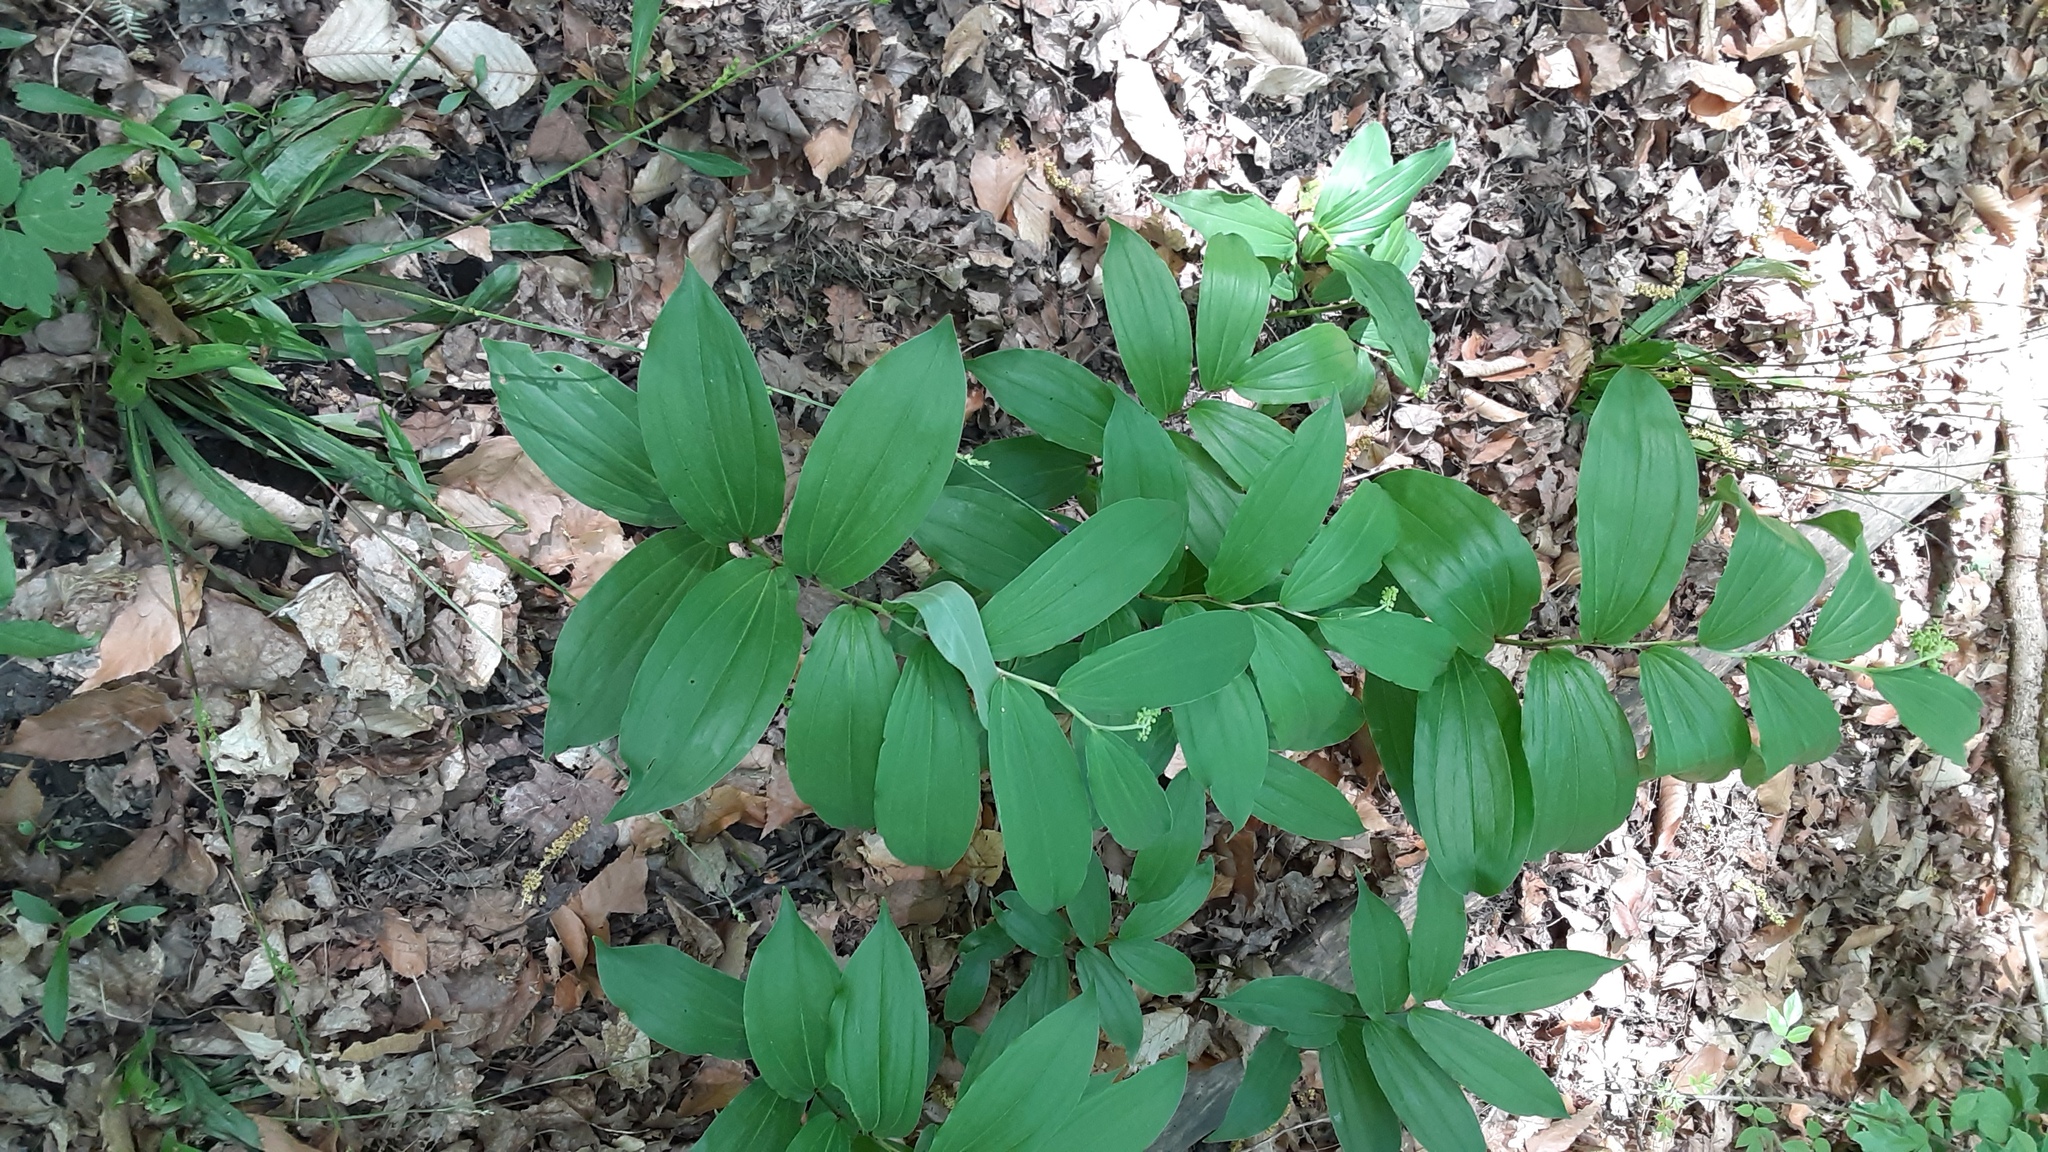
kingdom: Plantae
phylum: Tracheophyta
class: Liliopsida
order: Asparagales
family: Asparagaceae
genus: Maianthemum
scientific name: Maianthemum racemosum
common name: False spikenard
